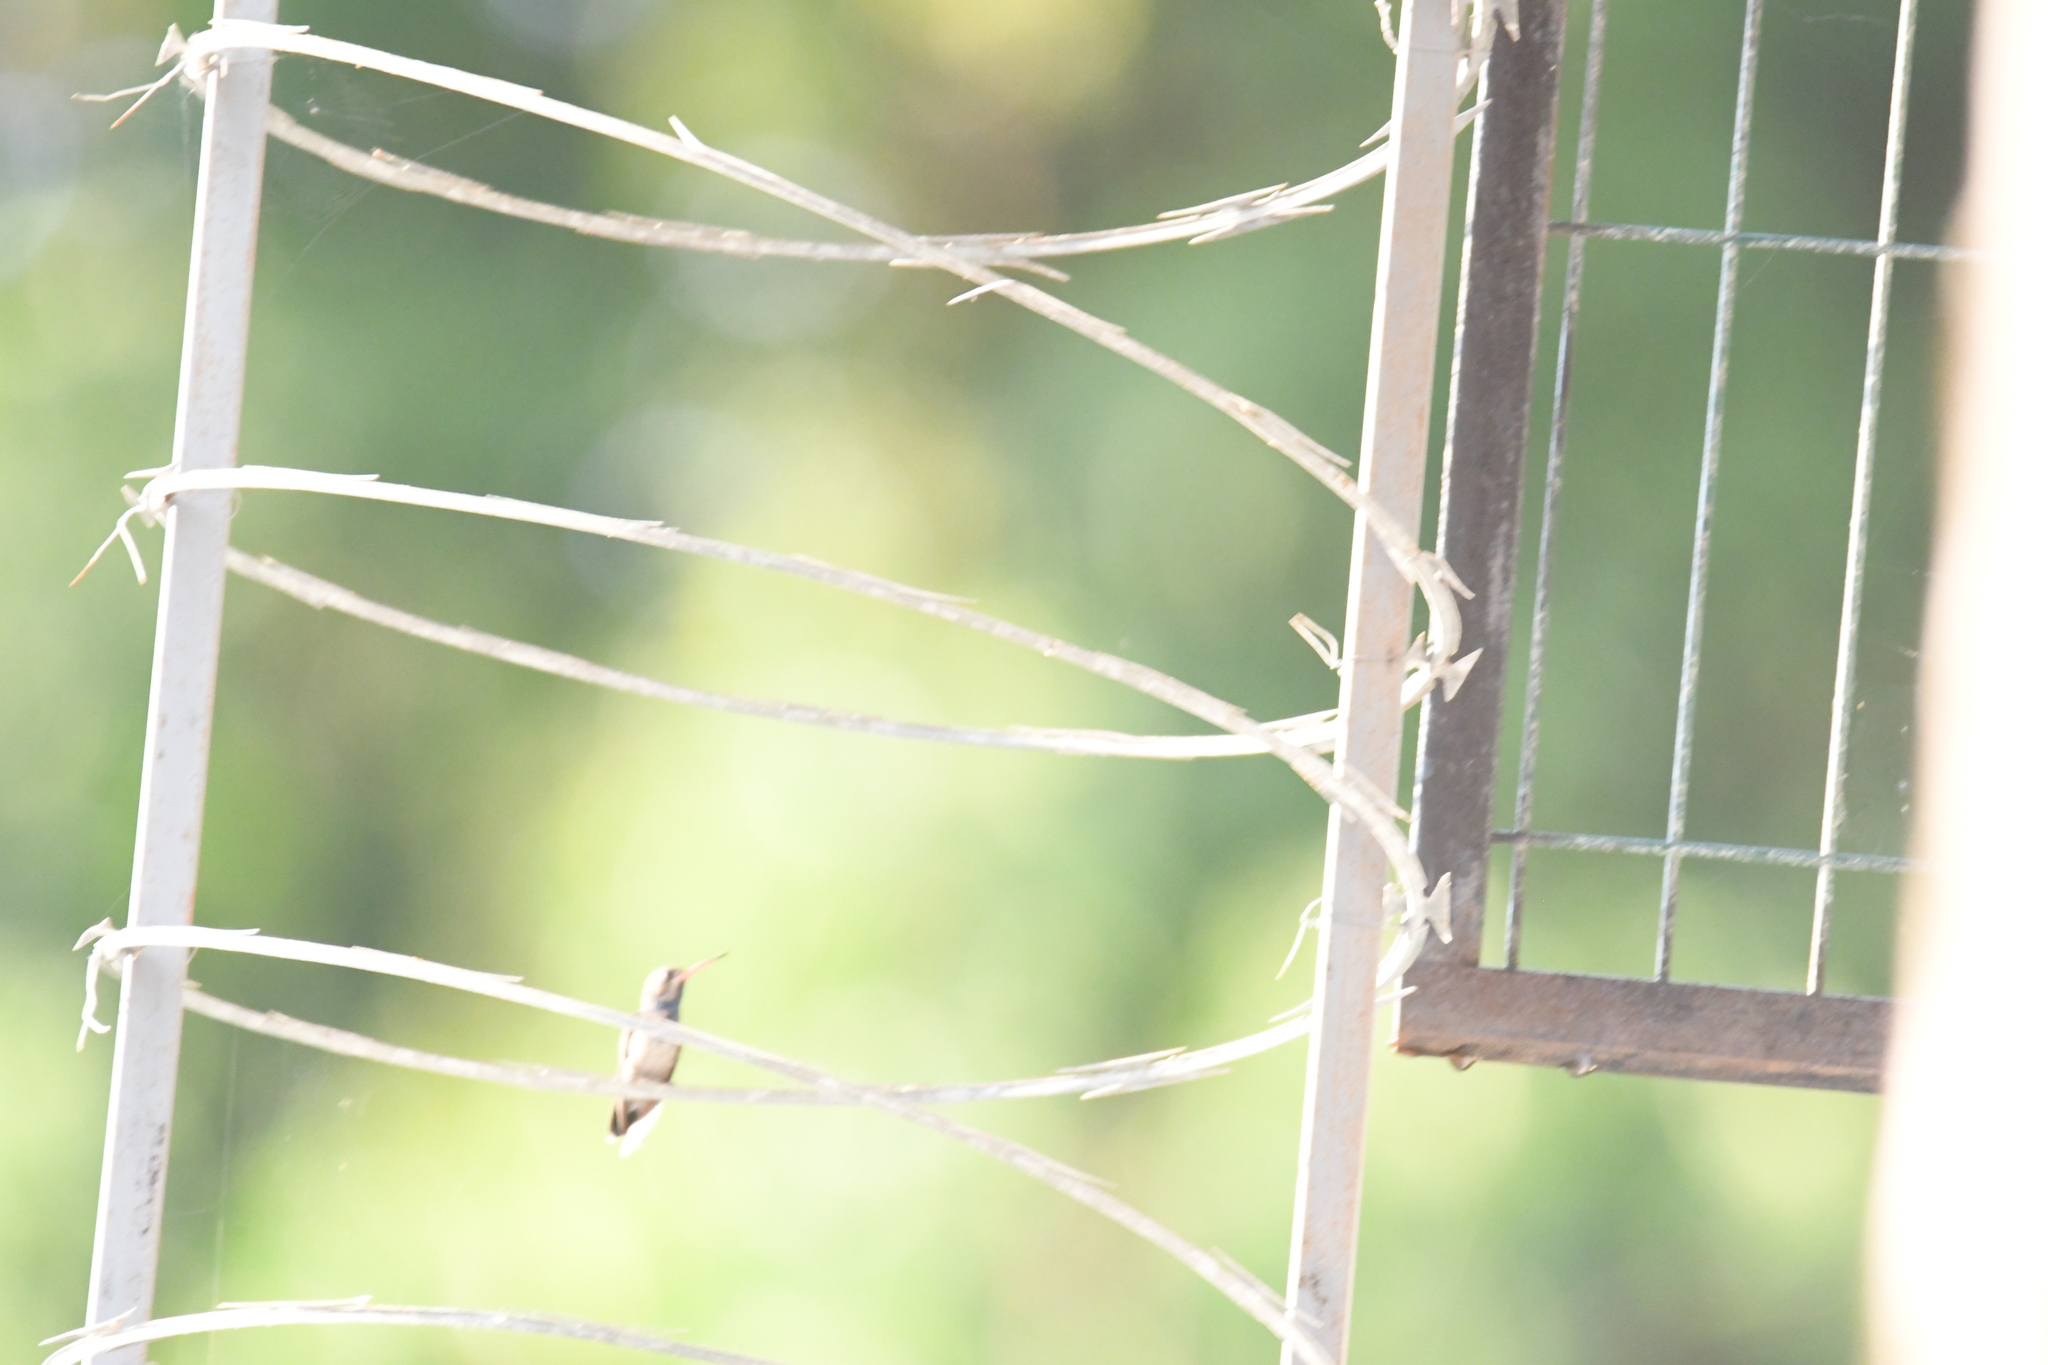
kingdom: Animalia
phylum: Chordata
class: Aves
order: Apodiformes
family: Trochilidae
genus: Cynanthus
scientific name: Cynanthus doubledayi
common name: Doubleday's hummingbird
